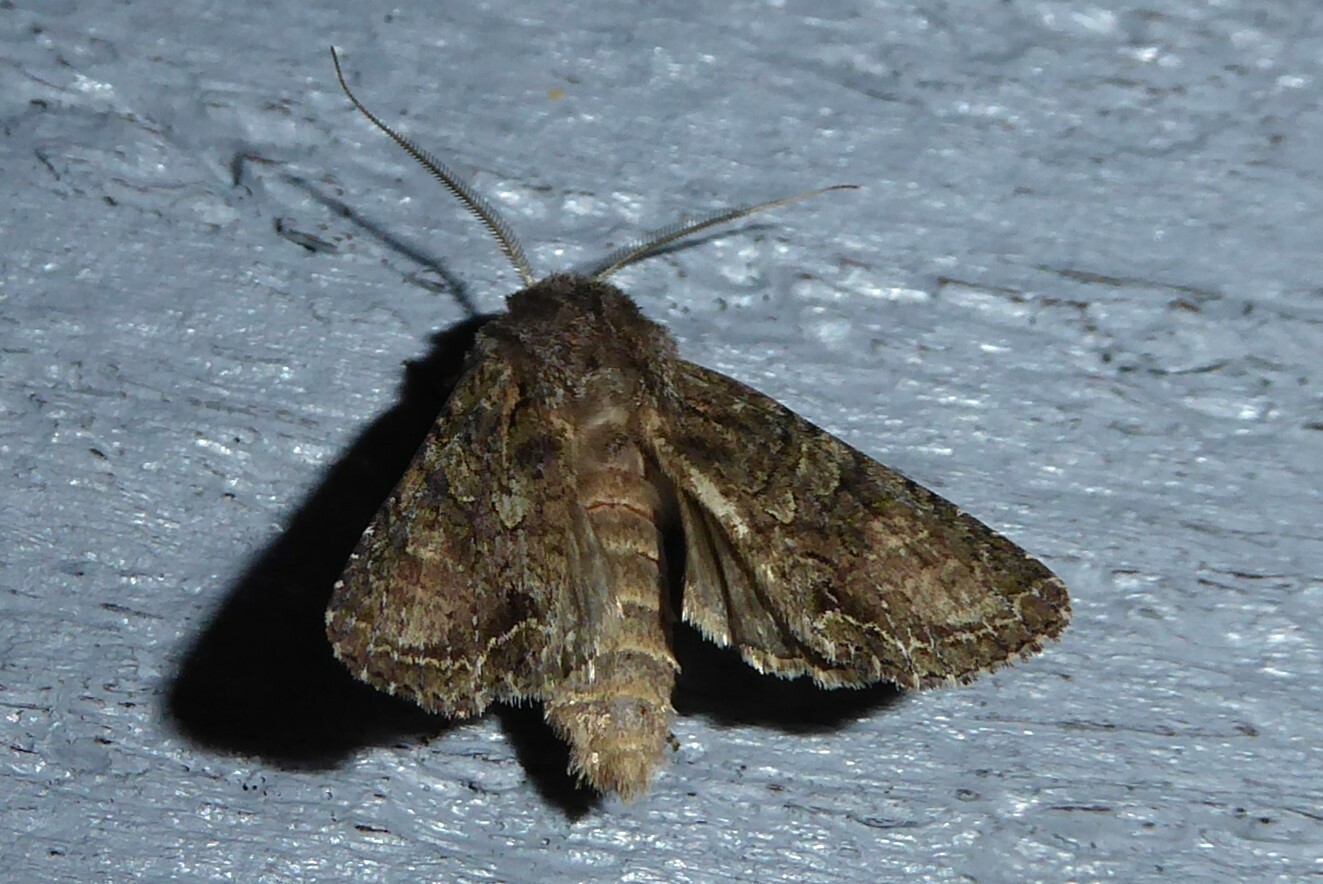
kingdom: Animalia
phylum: Arthropoda
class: Insecta
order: Lepidoptera
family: Noctuidae
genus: Ichneutica
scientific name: Ichneutica mutans
